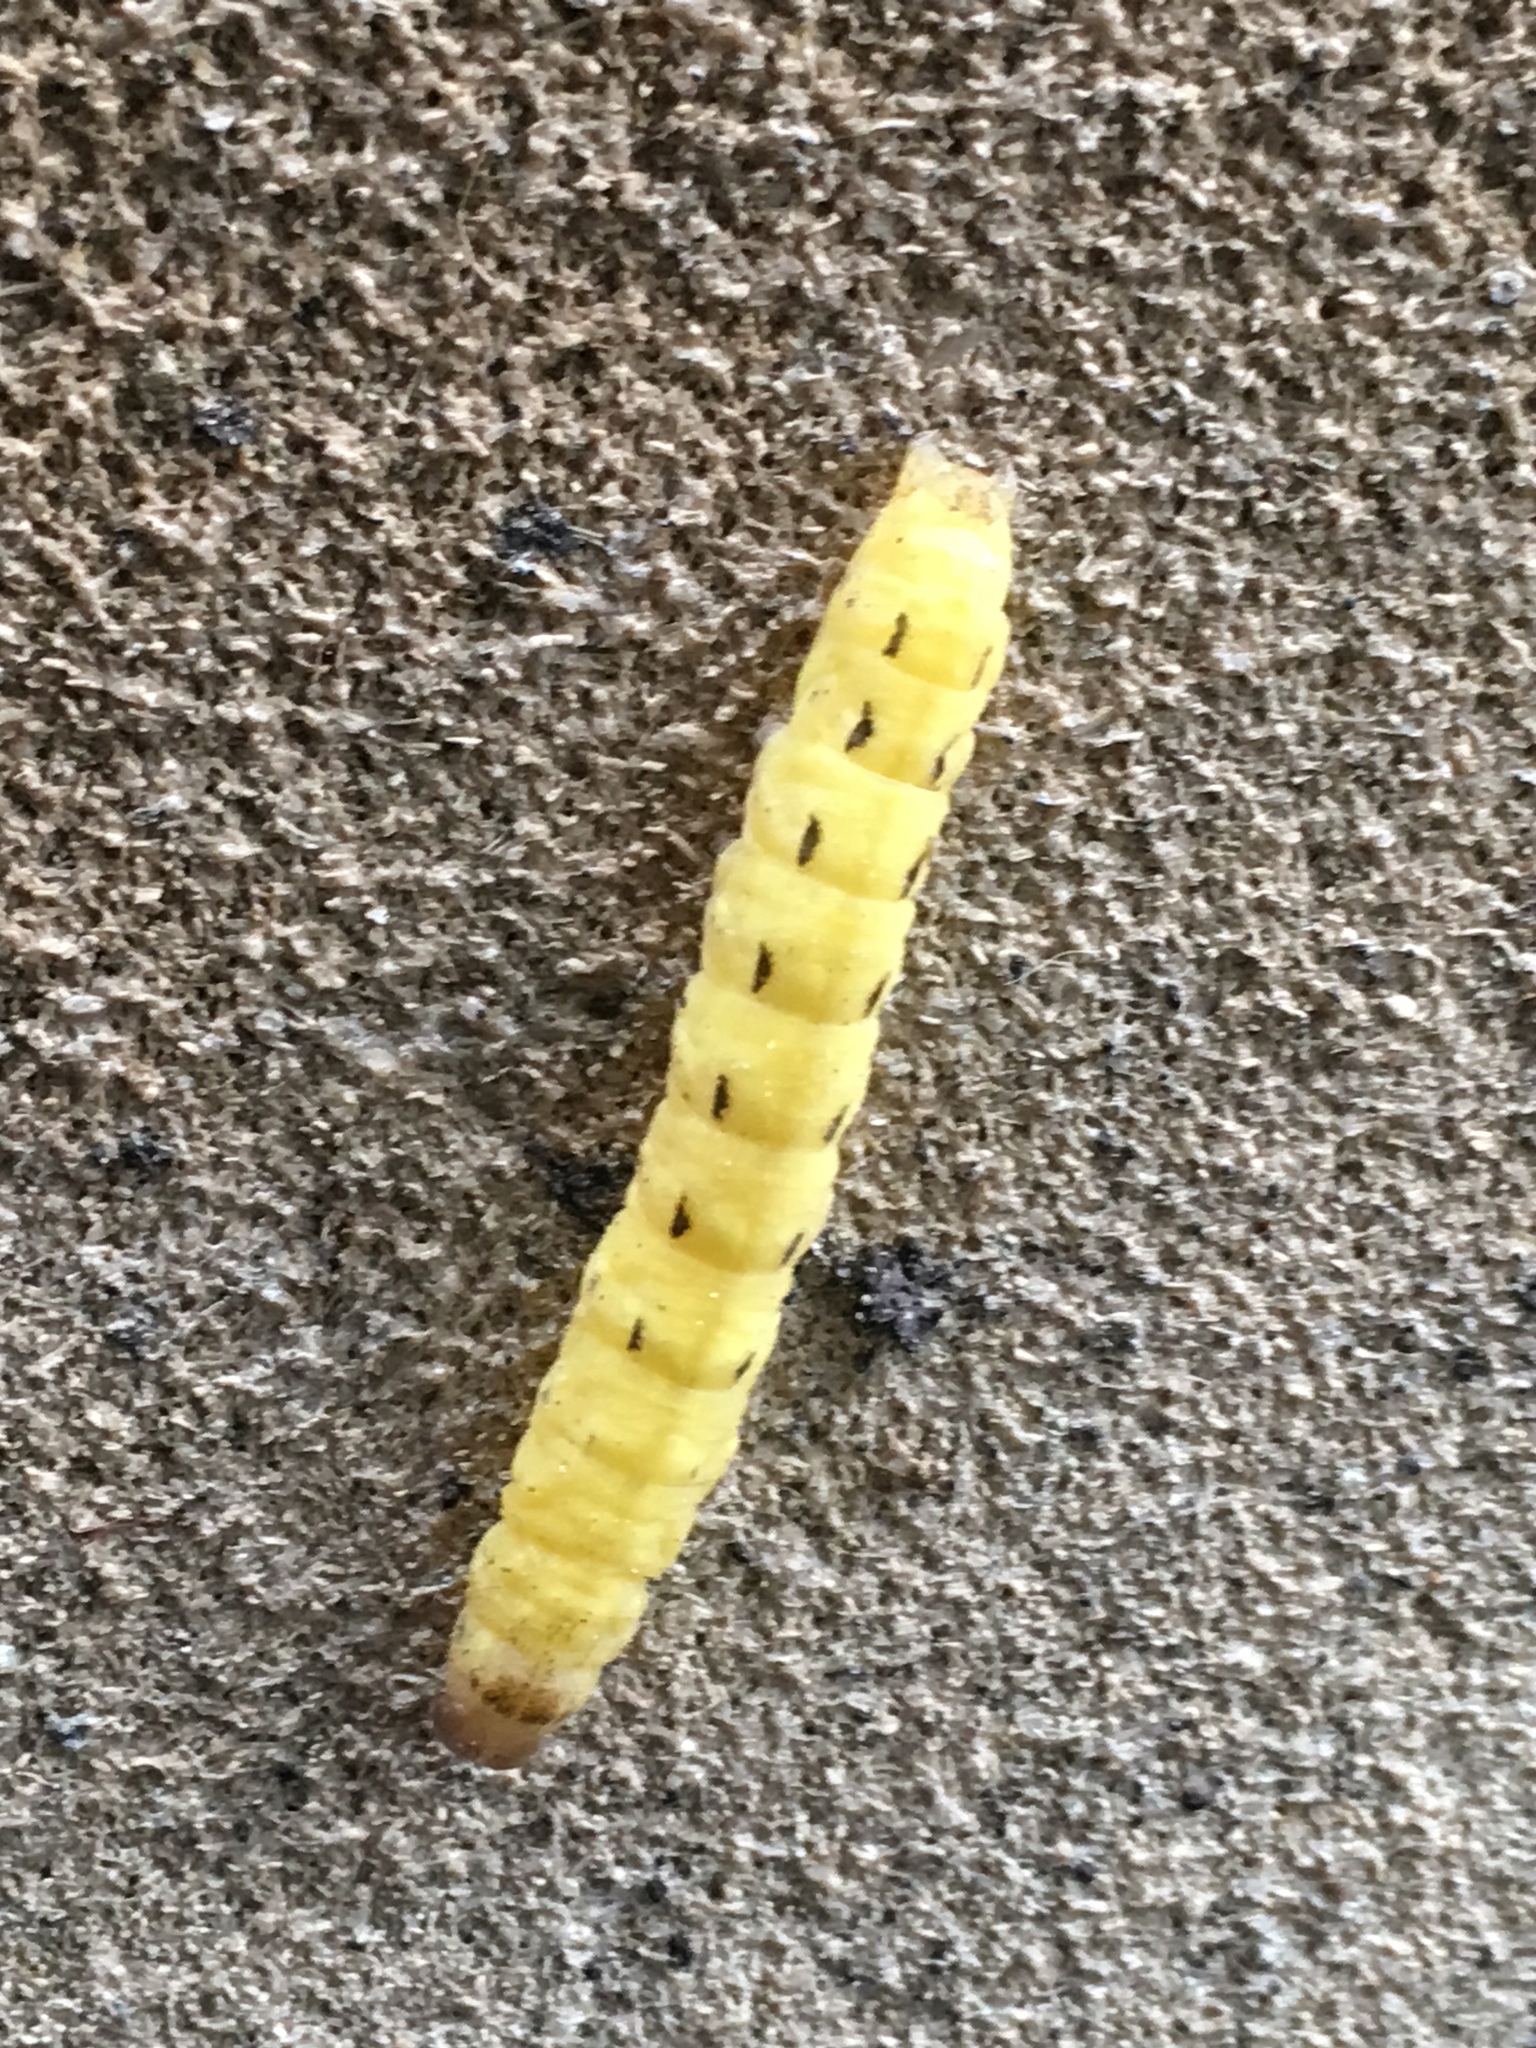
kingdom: Animalia
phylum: Arthropoda
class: Insecta
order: Lepidoptera
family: Noctuidae
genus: Noctua
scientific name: Noctua pronuba
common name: Large yellow underwing
